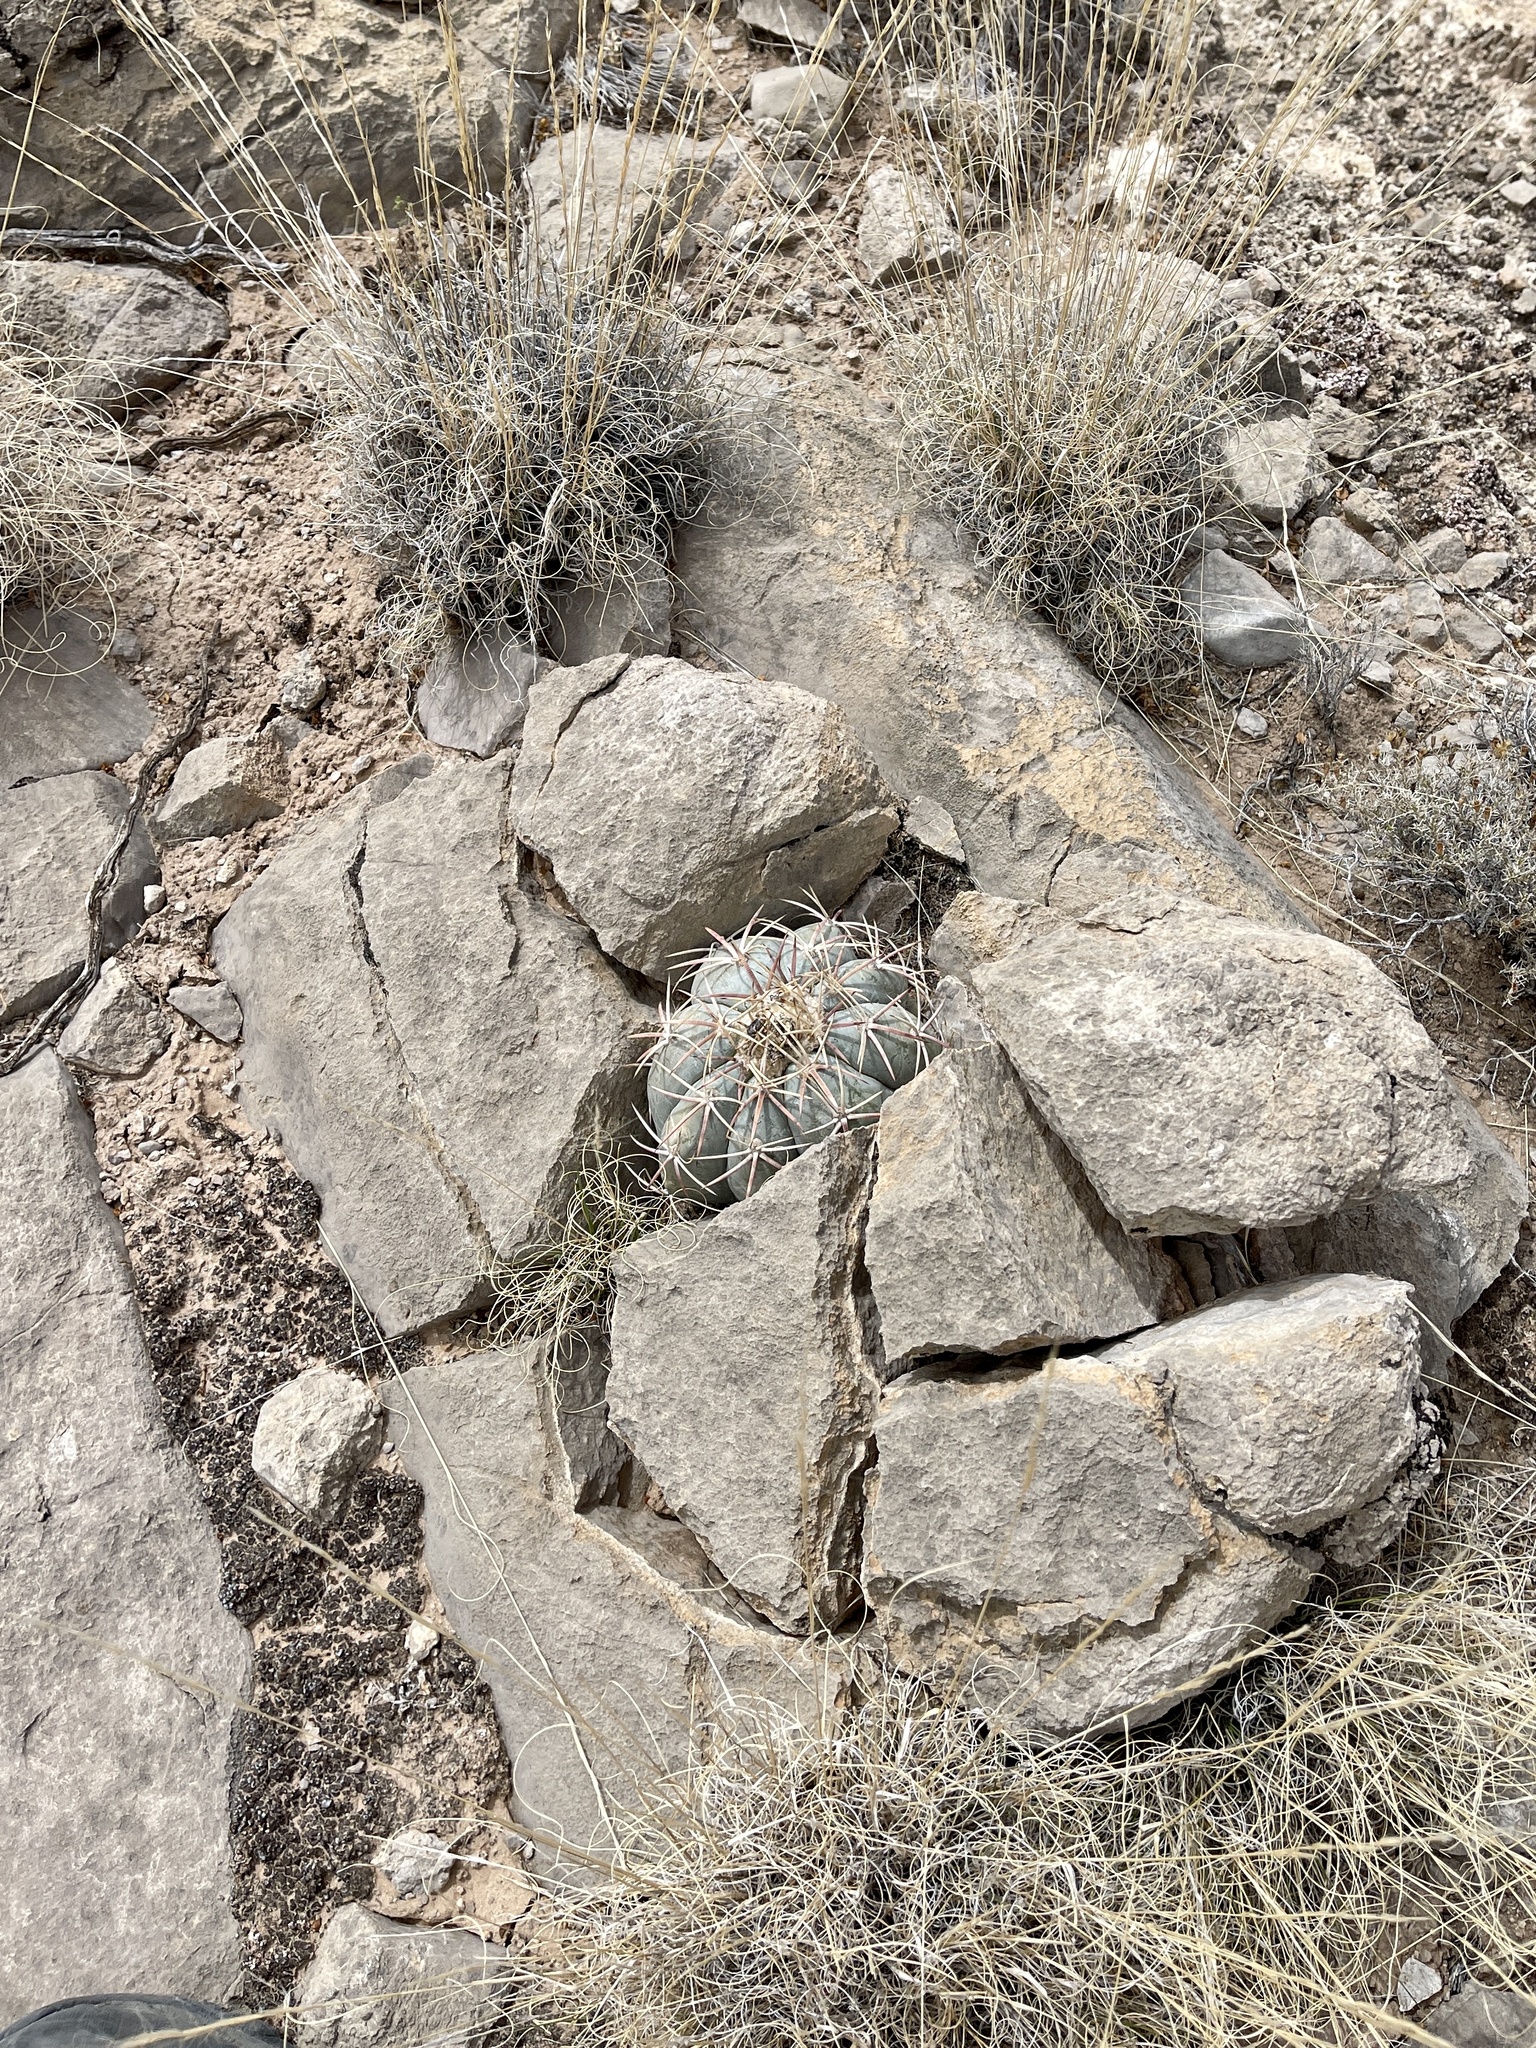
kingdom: Plantae
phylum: Tracheophyta
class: Magnoliopsida
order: Caryophyllales
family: Cactaceae
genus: Echinocactus
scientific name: Echinocactus horizonthalonius
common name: Devilshead
